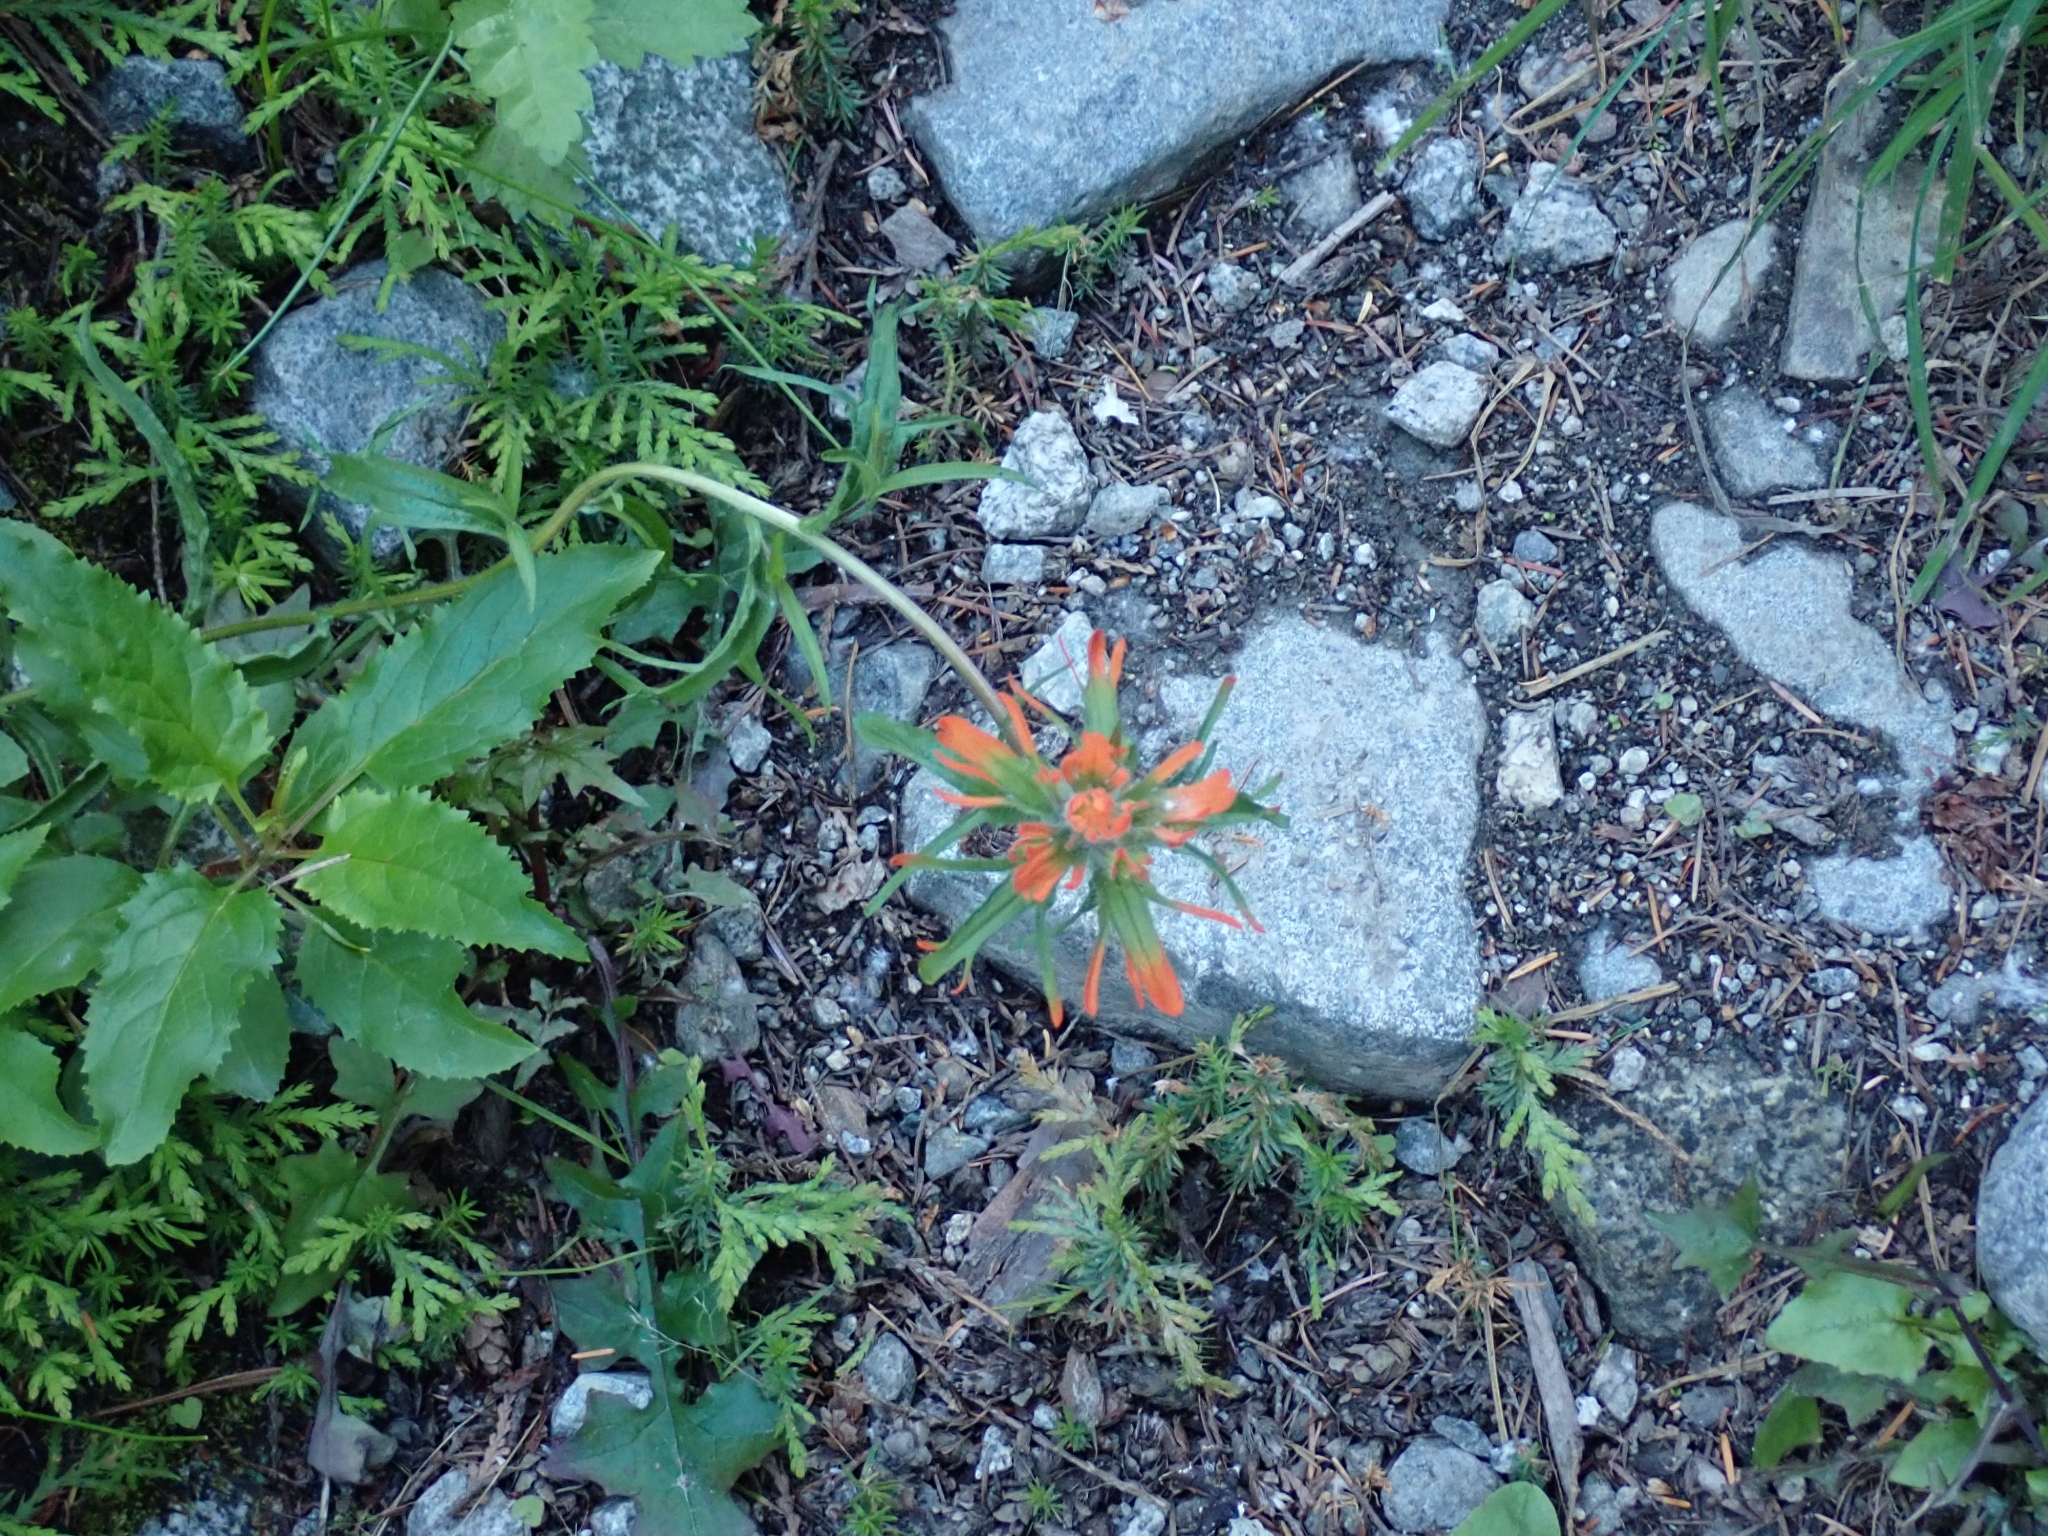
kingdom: Plantae
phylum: Tracheophyta
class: Magnoliopsida
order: Lamiales
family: Orobanchaceae
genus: Castilleja
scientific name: Castilleja hispida
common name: Bristly paintbrush
